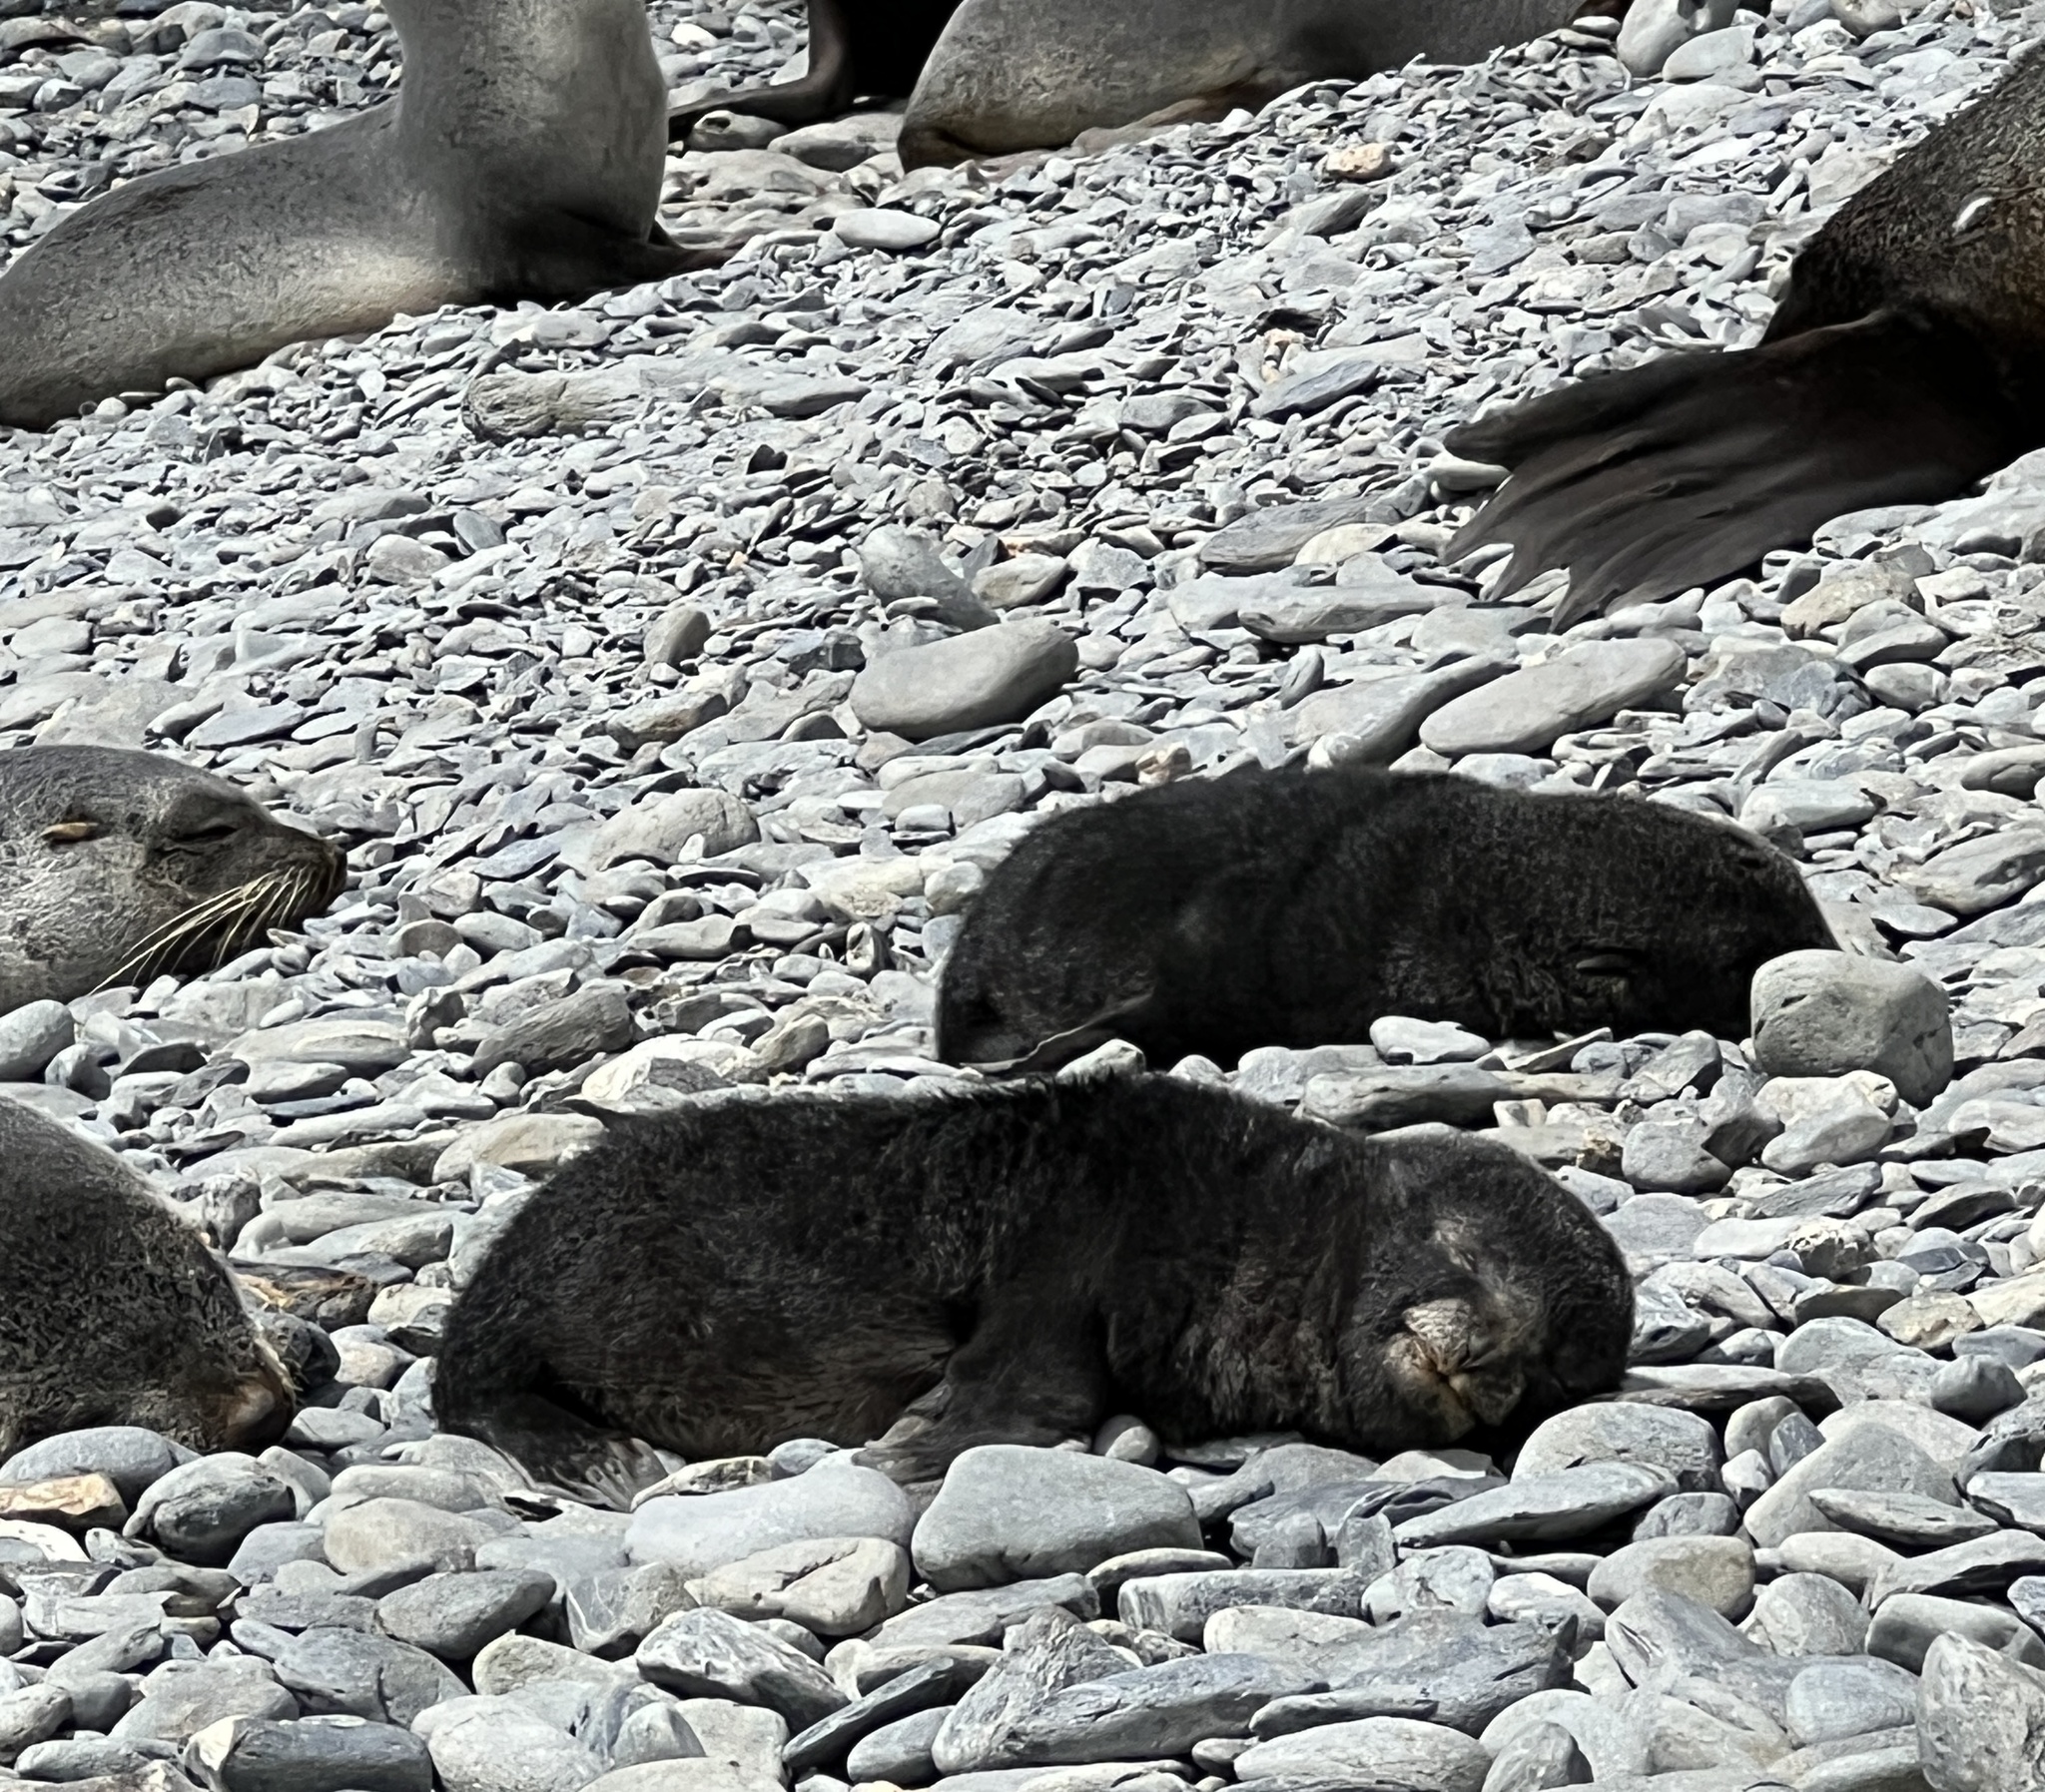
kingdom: Animalia
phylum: Chordata
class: Mammalia
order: Carnivora
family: Otariidae
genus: Arctocephalus
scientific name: Arctocephalus gazella
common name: Antarctic fur seal
